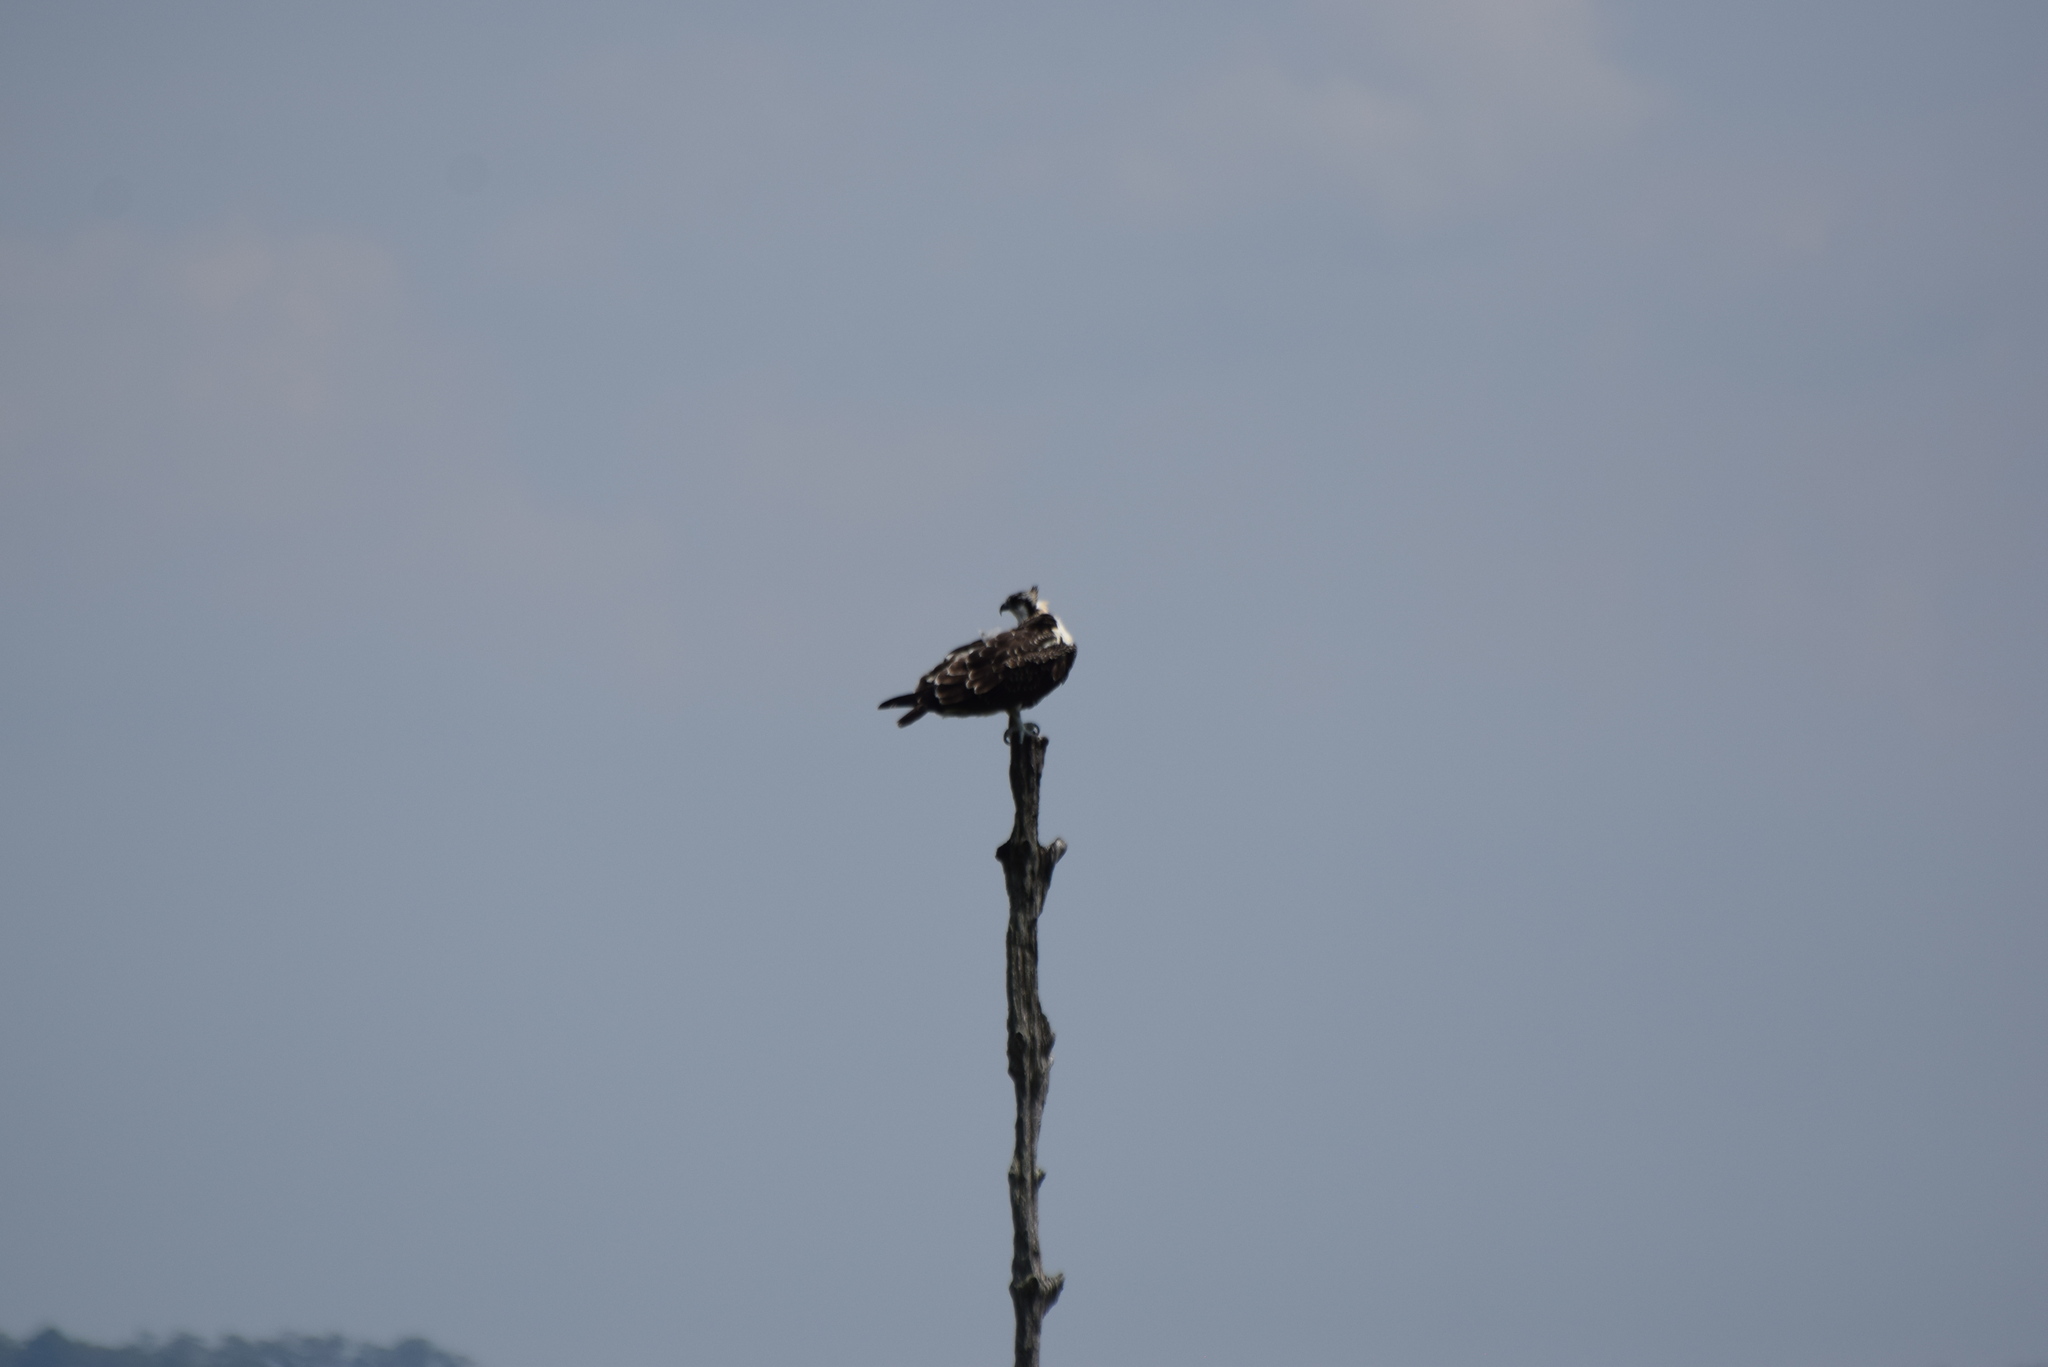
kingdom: Animalia
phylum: Chordata
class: Aves
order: Accipitriformes
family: Pandionidae
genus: Pandion
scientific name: Pandion haliaetus
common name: Osprey
